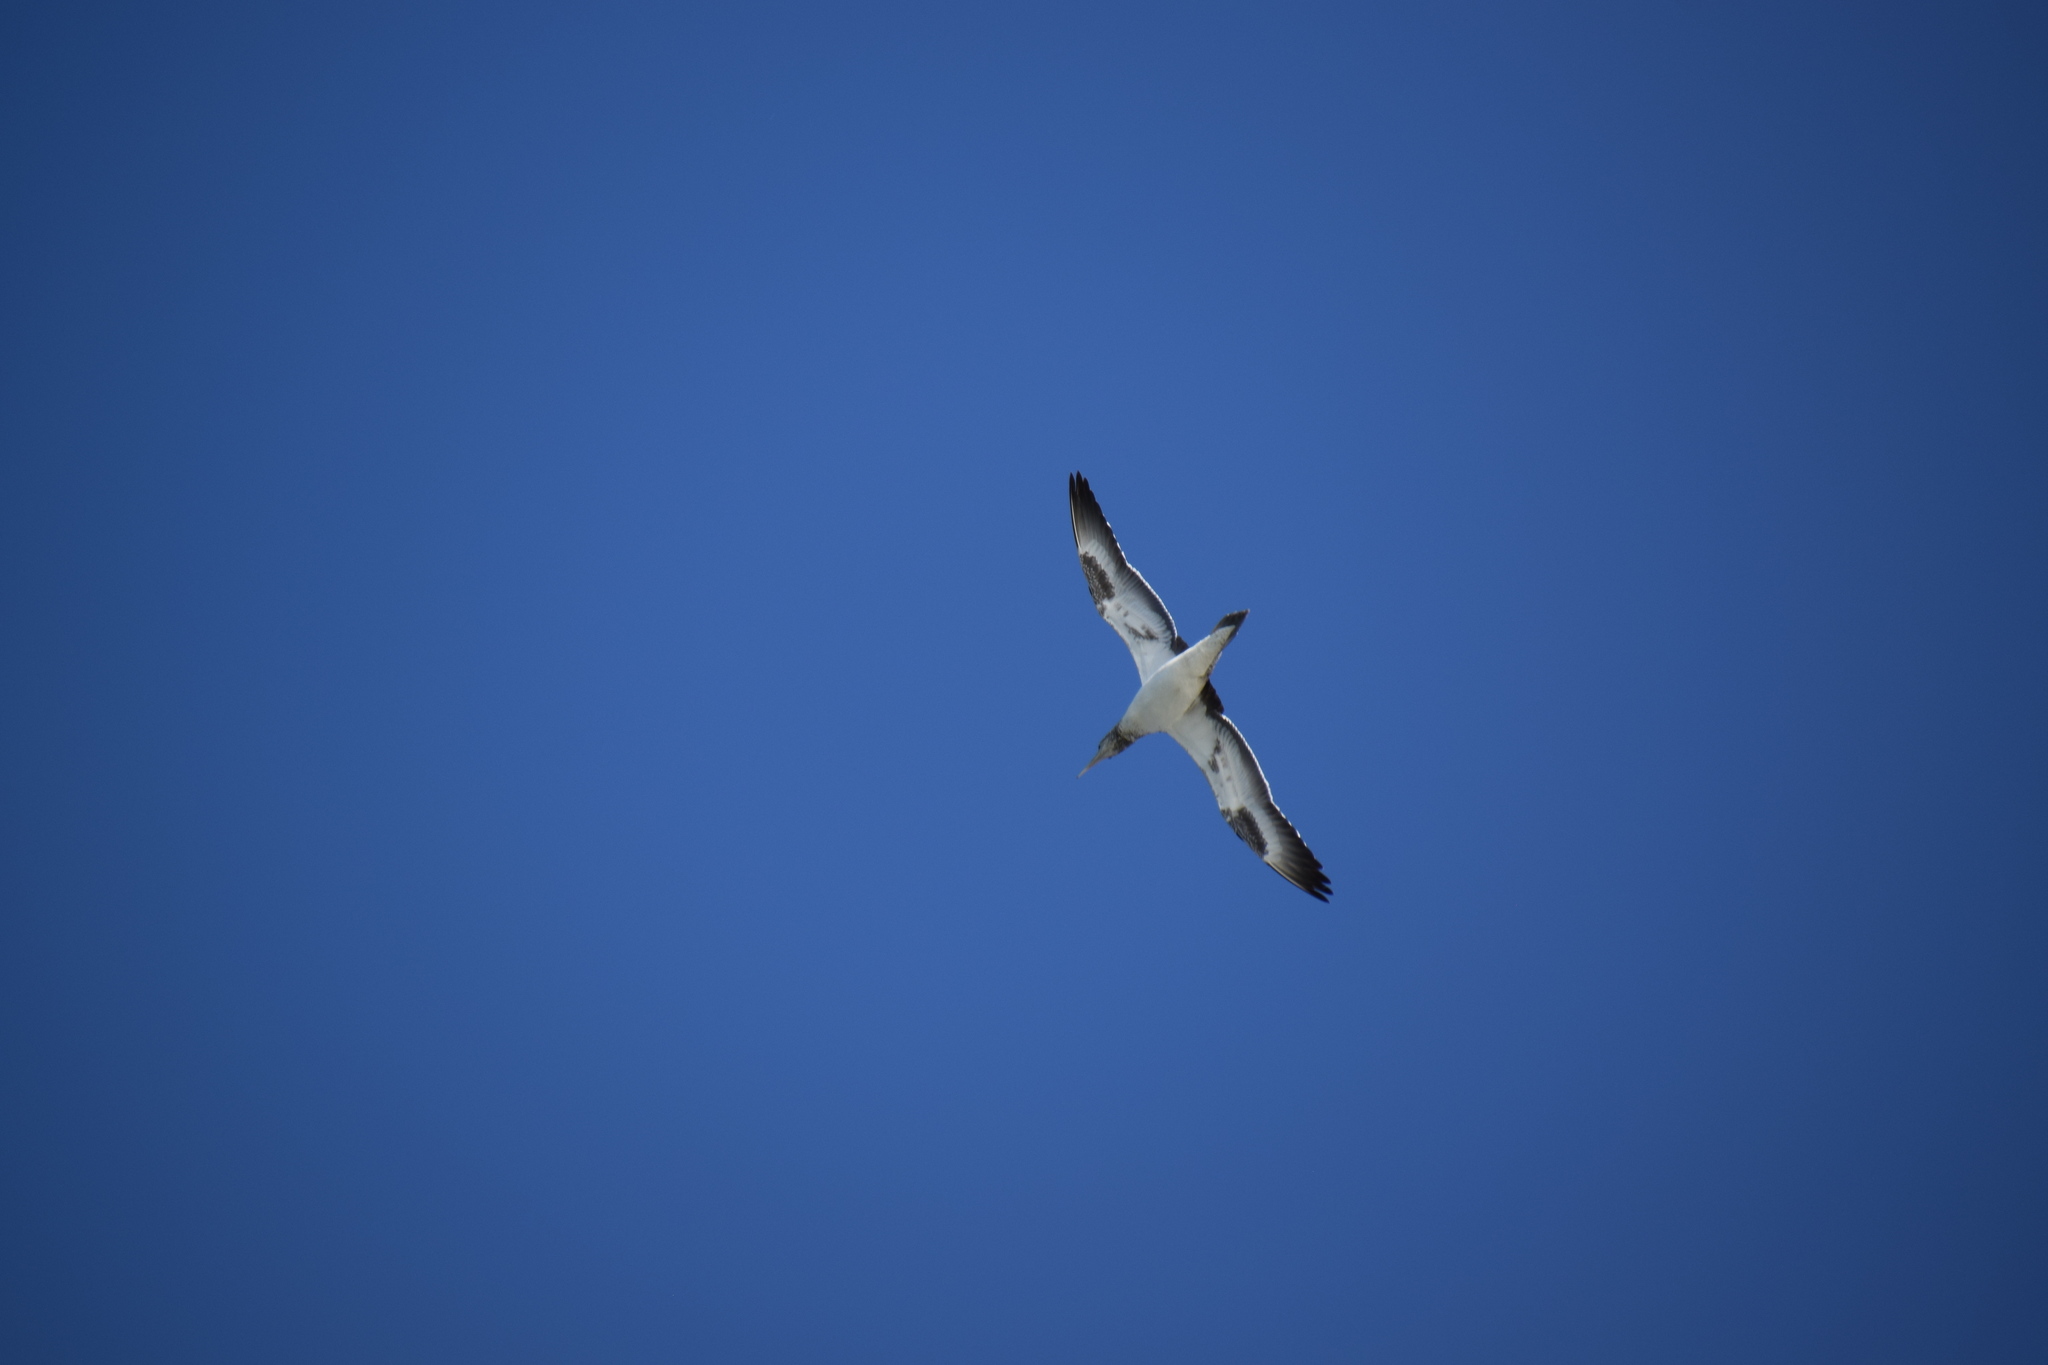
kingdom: Animalia
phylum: Chordata
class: Aves
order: Suliformes
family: Sulidae
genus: Morus
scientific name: Morus serrator
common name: Australasian gannet
